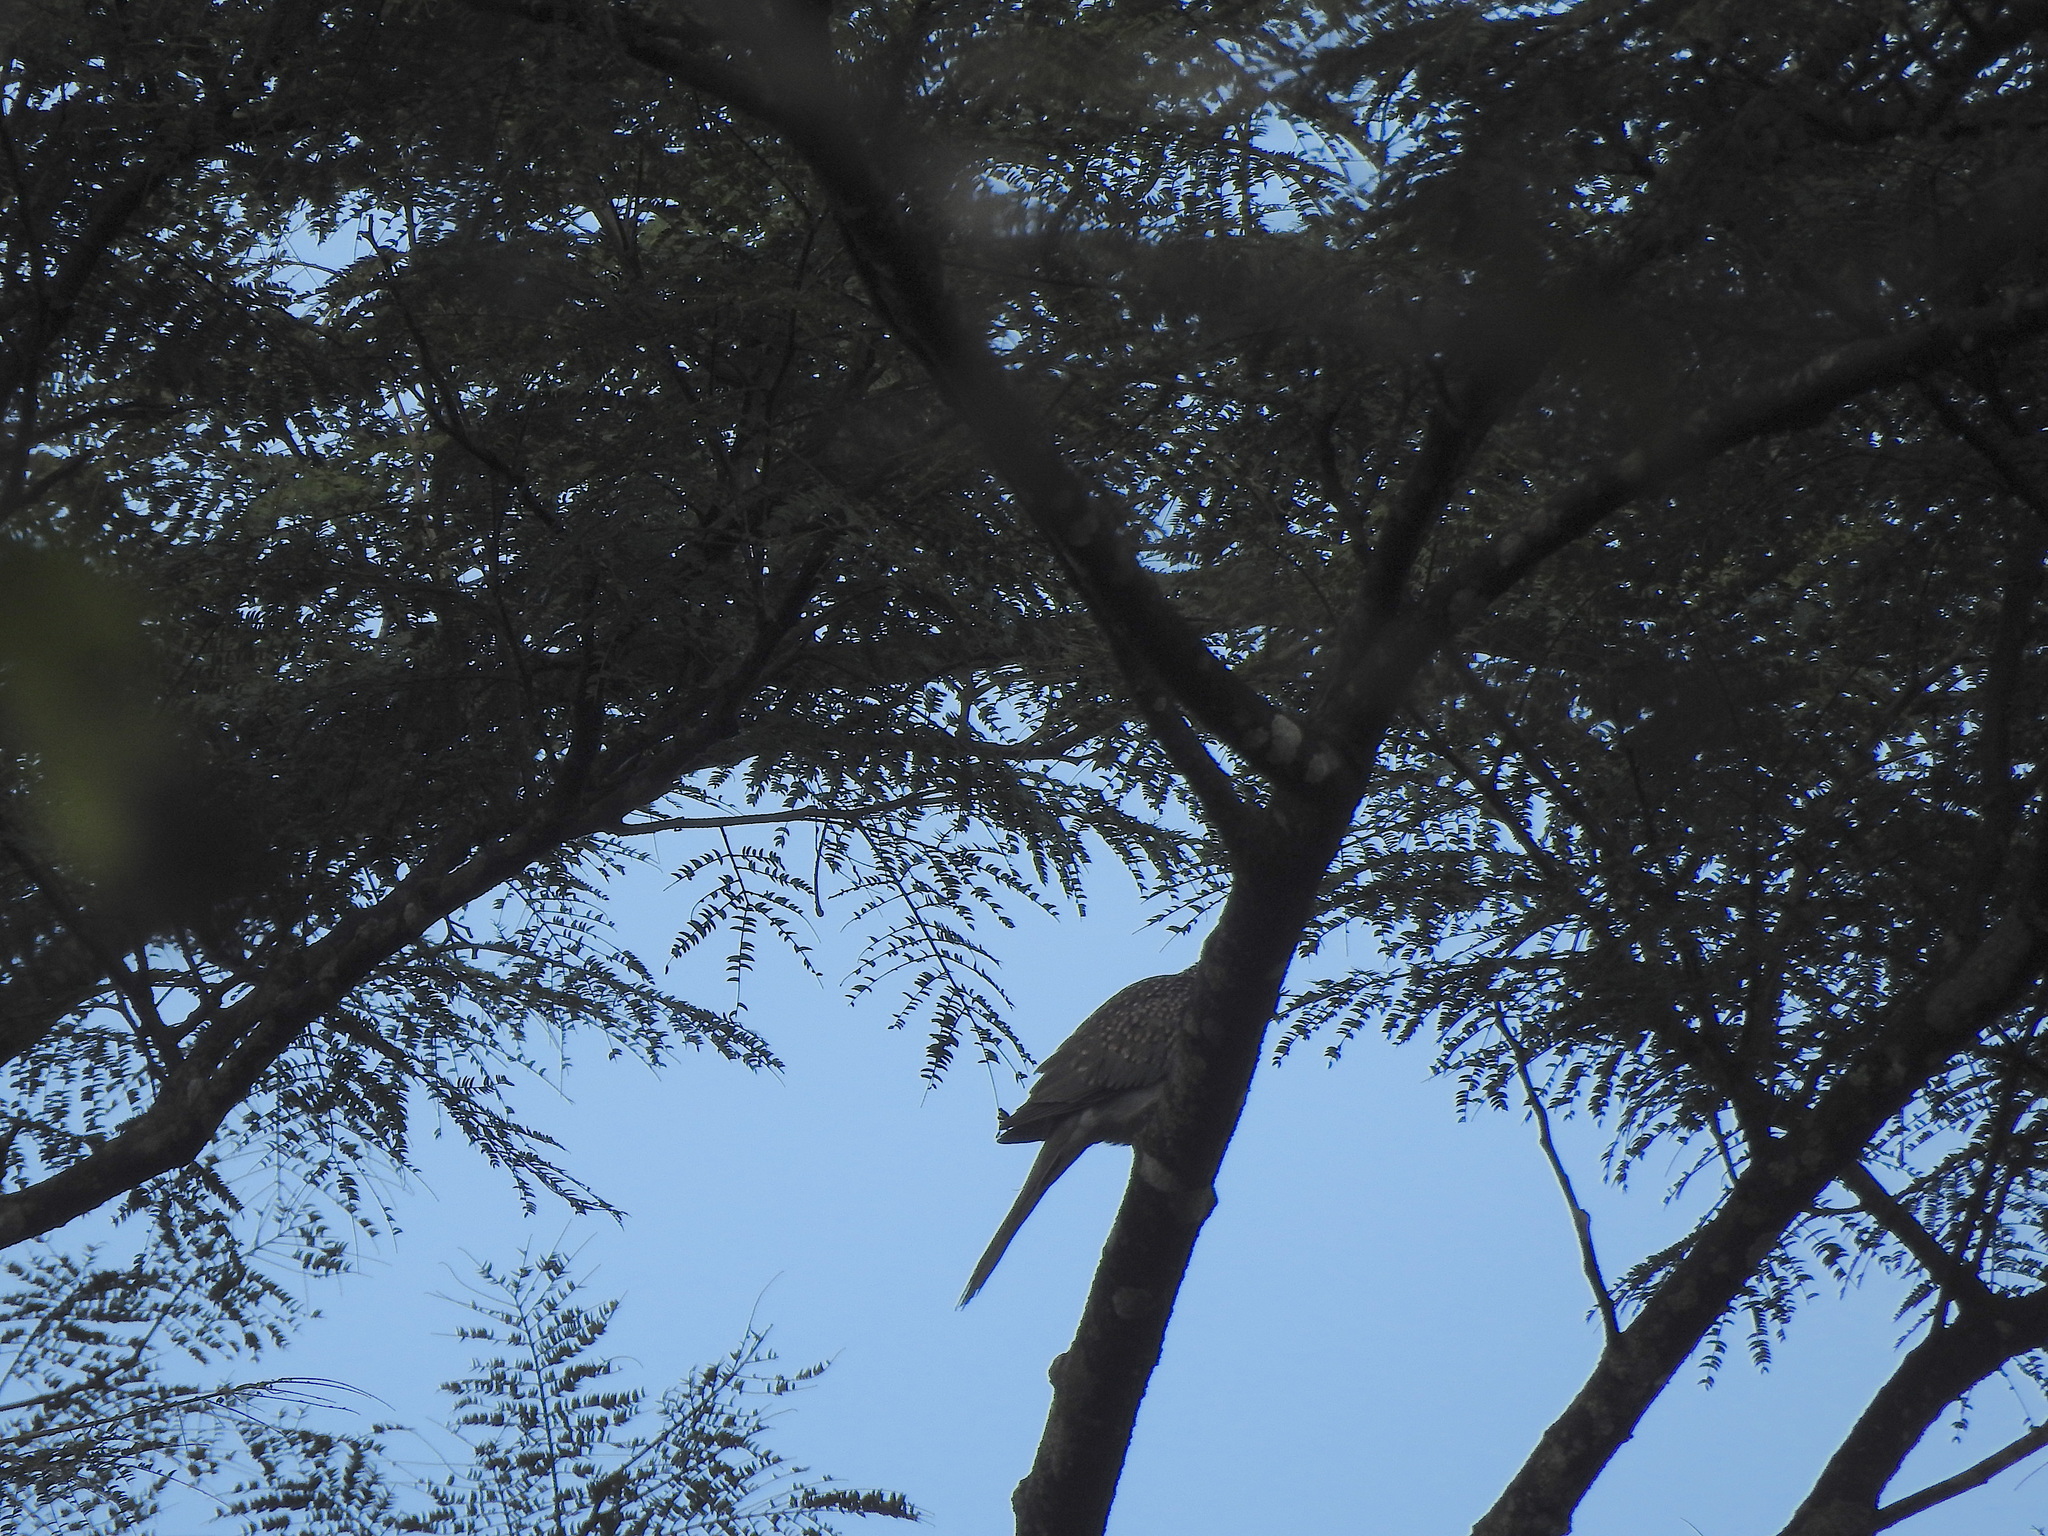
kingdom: Animalia
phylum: Chordata
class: Aves
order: Columbiformes
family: Columbidae
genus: Spilopelia
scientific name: Spilopelia chinensis
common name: Spotted dove
